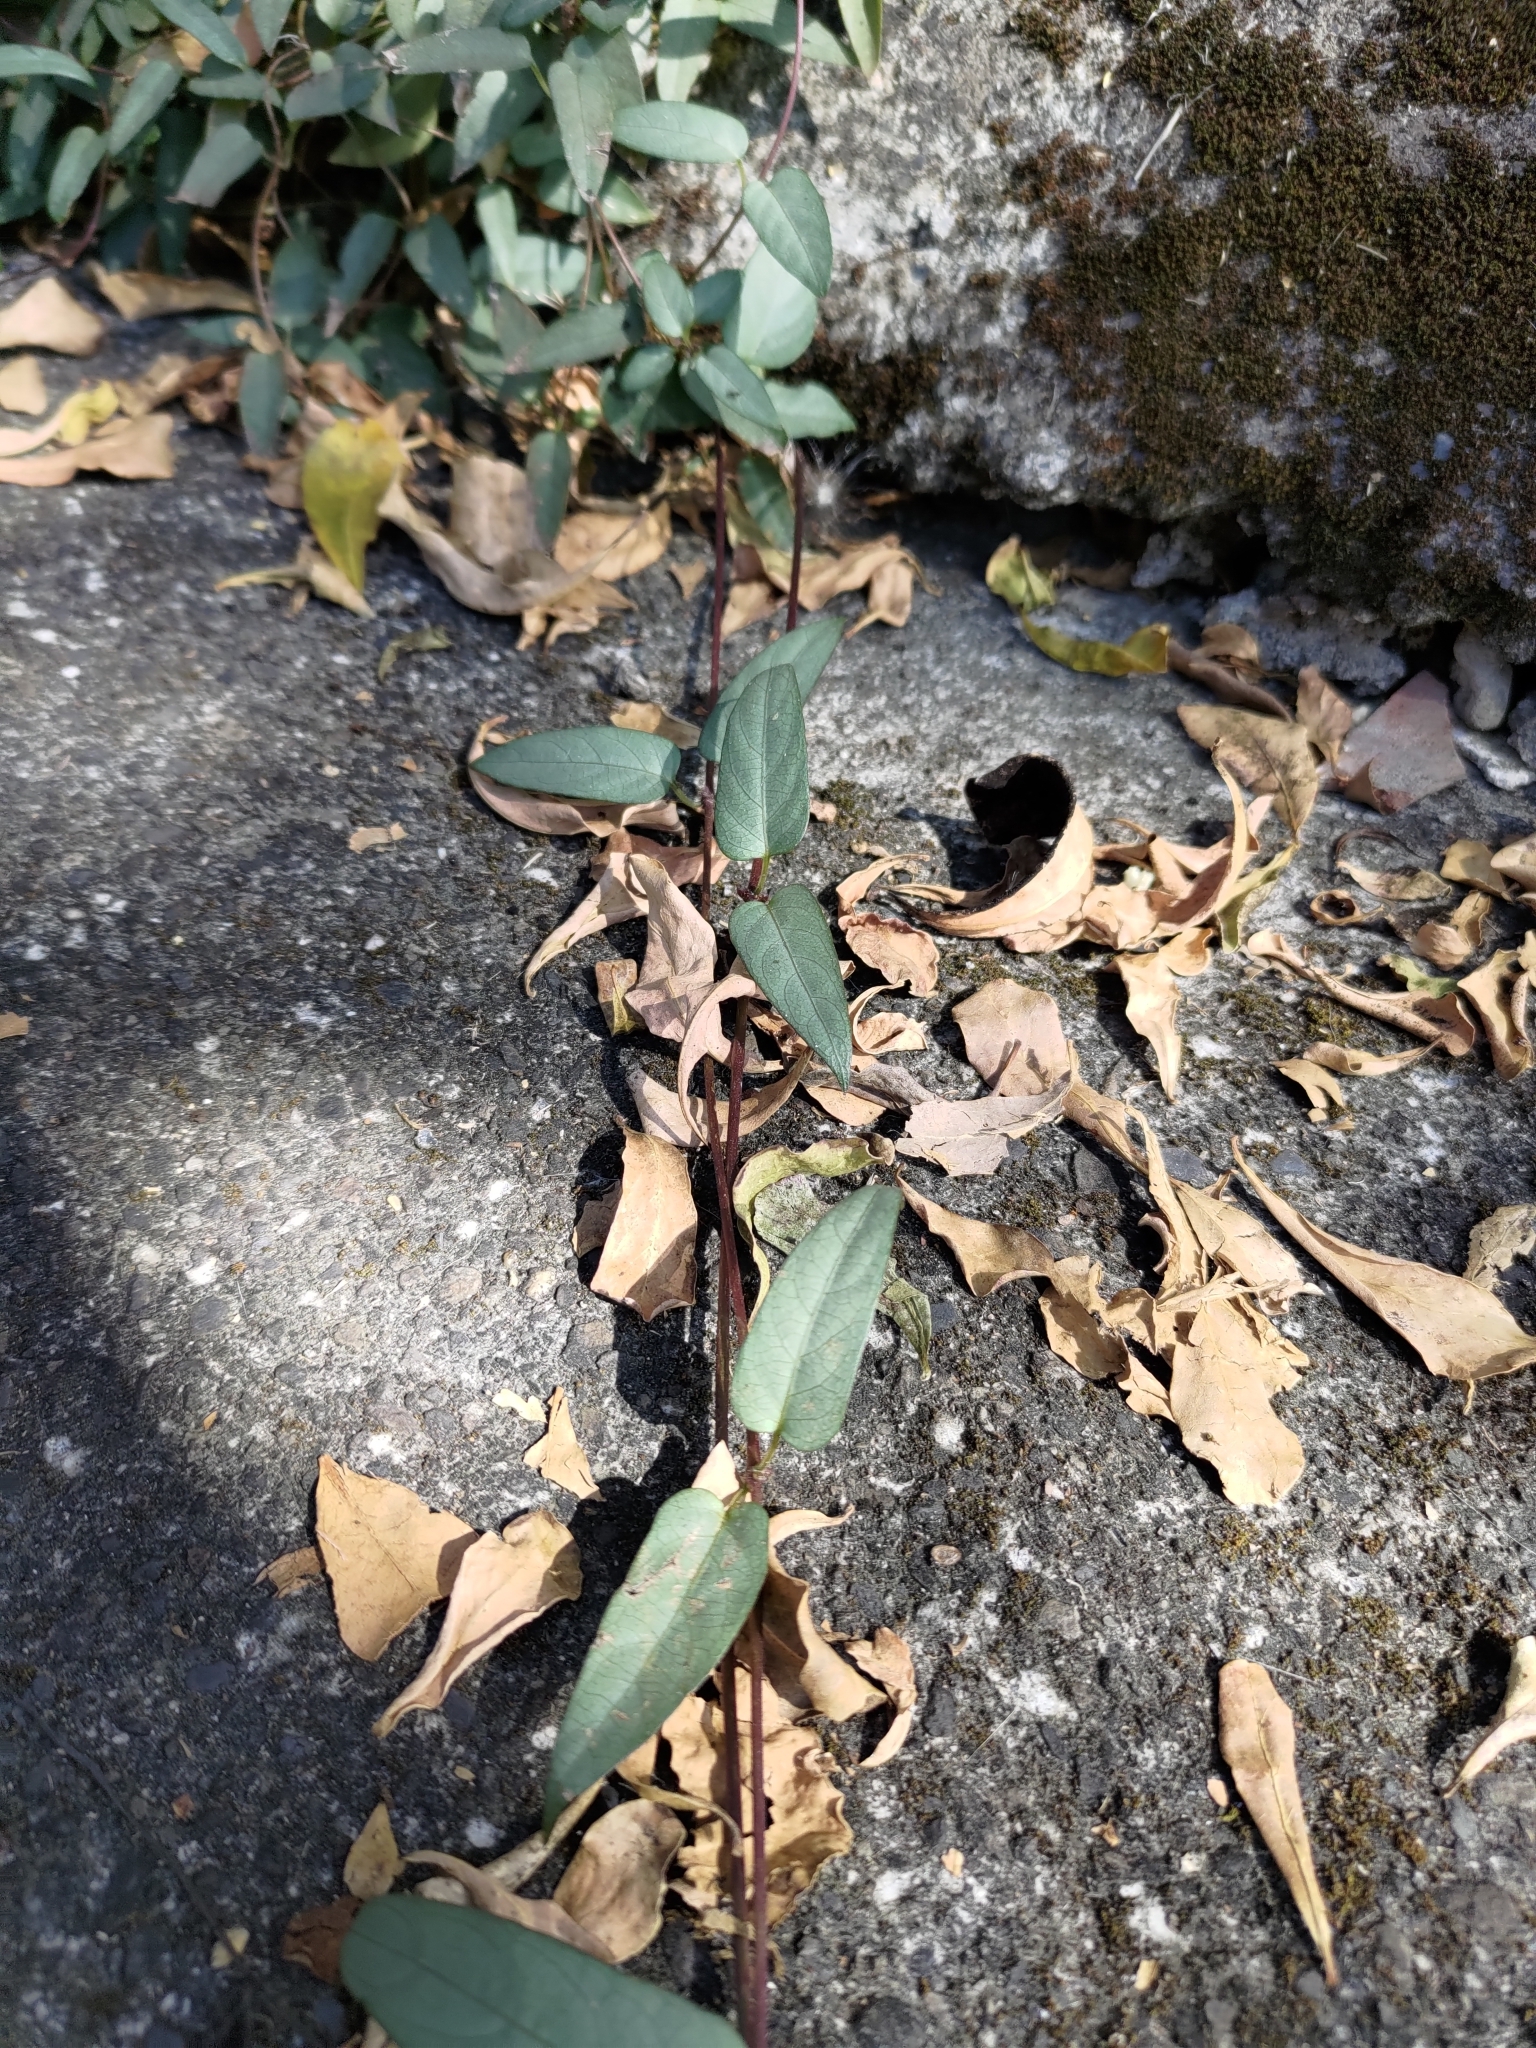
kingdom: Plantae
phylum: Tracheophyta
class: Magnoliopsida
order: Gentianales
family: Rubiaceae
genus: Paederia
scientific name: Paederia foetida
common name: Stinkvine
